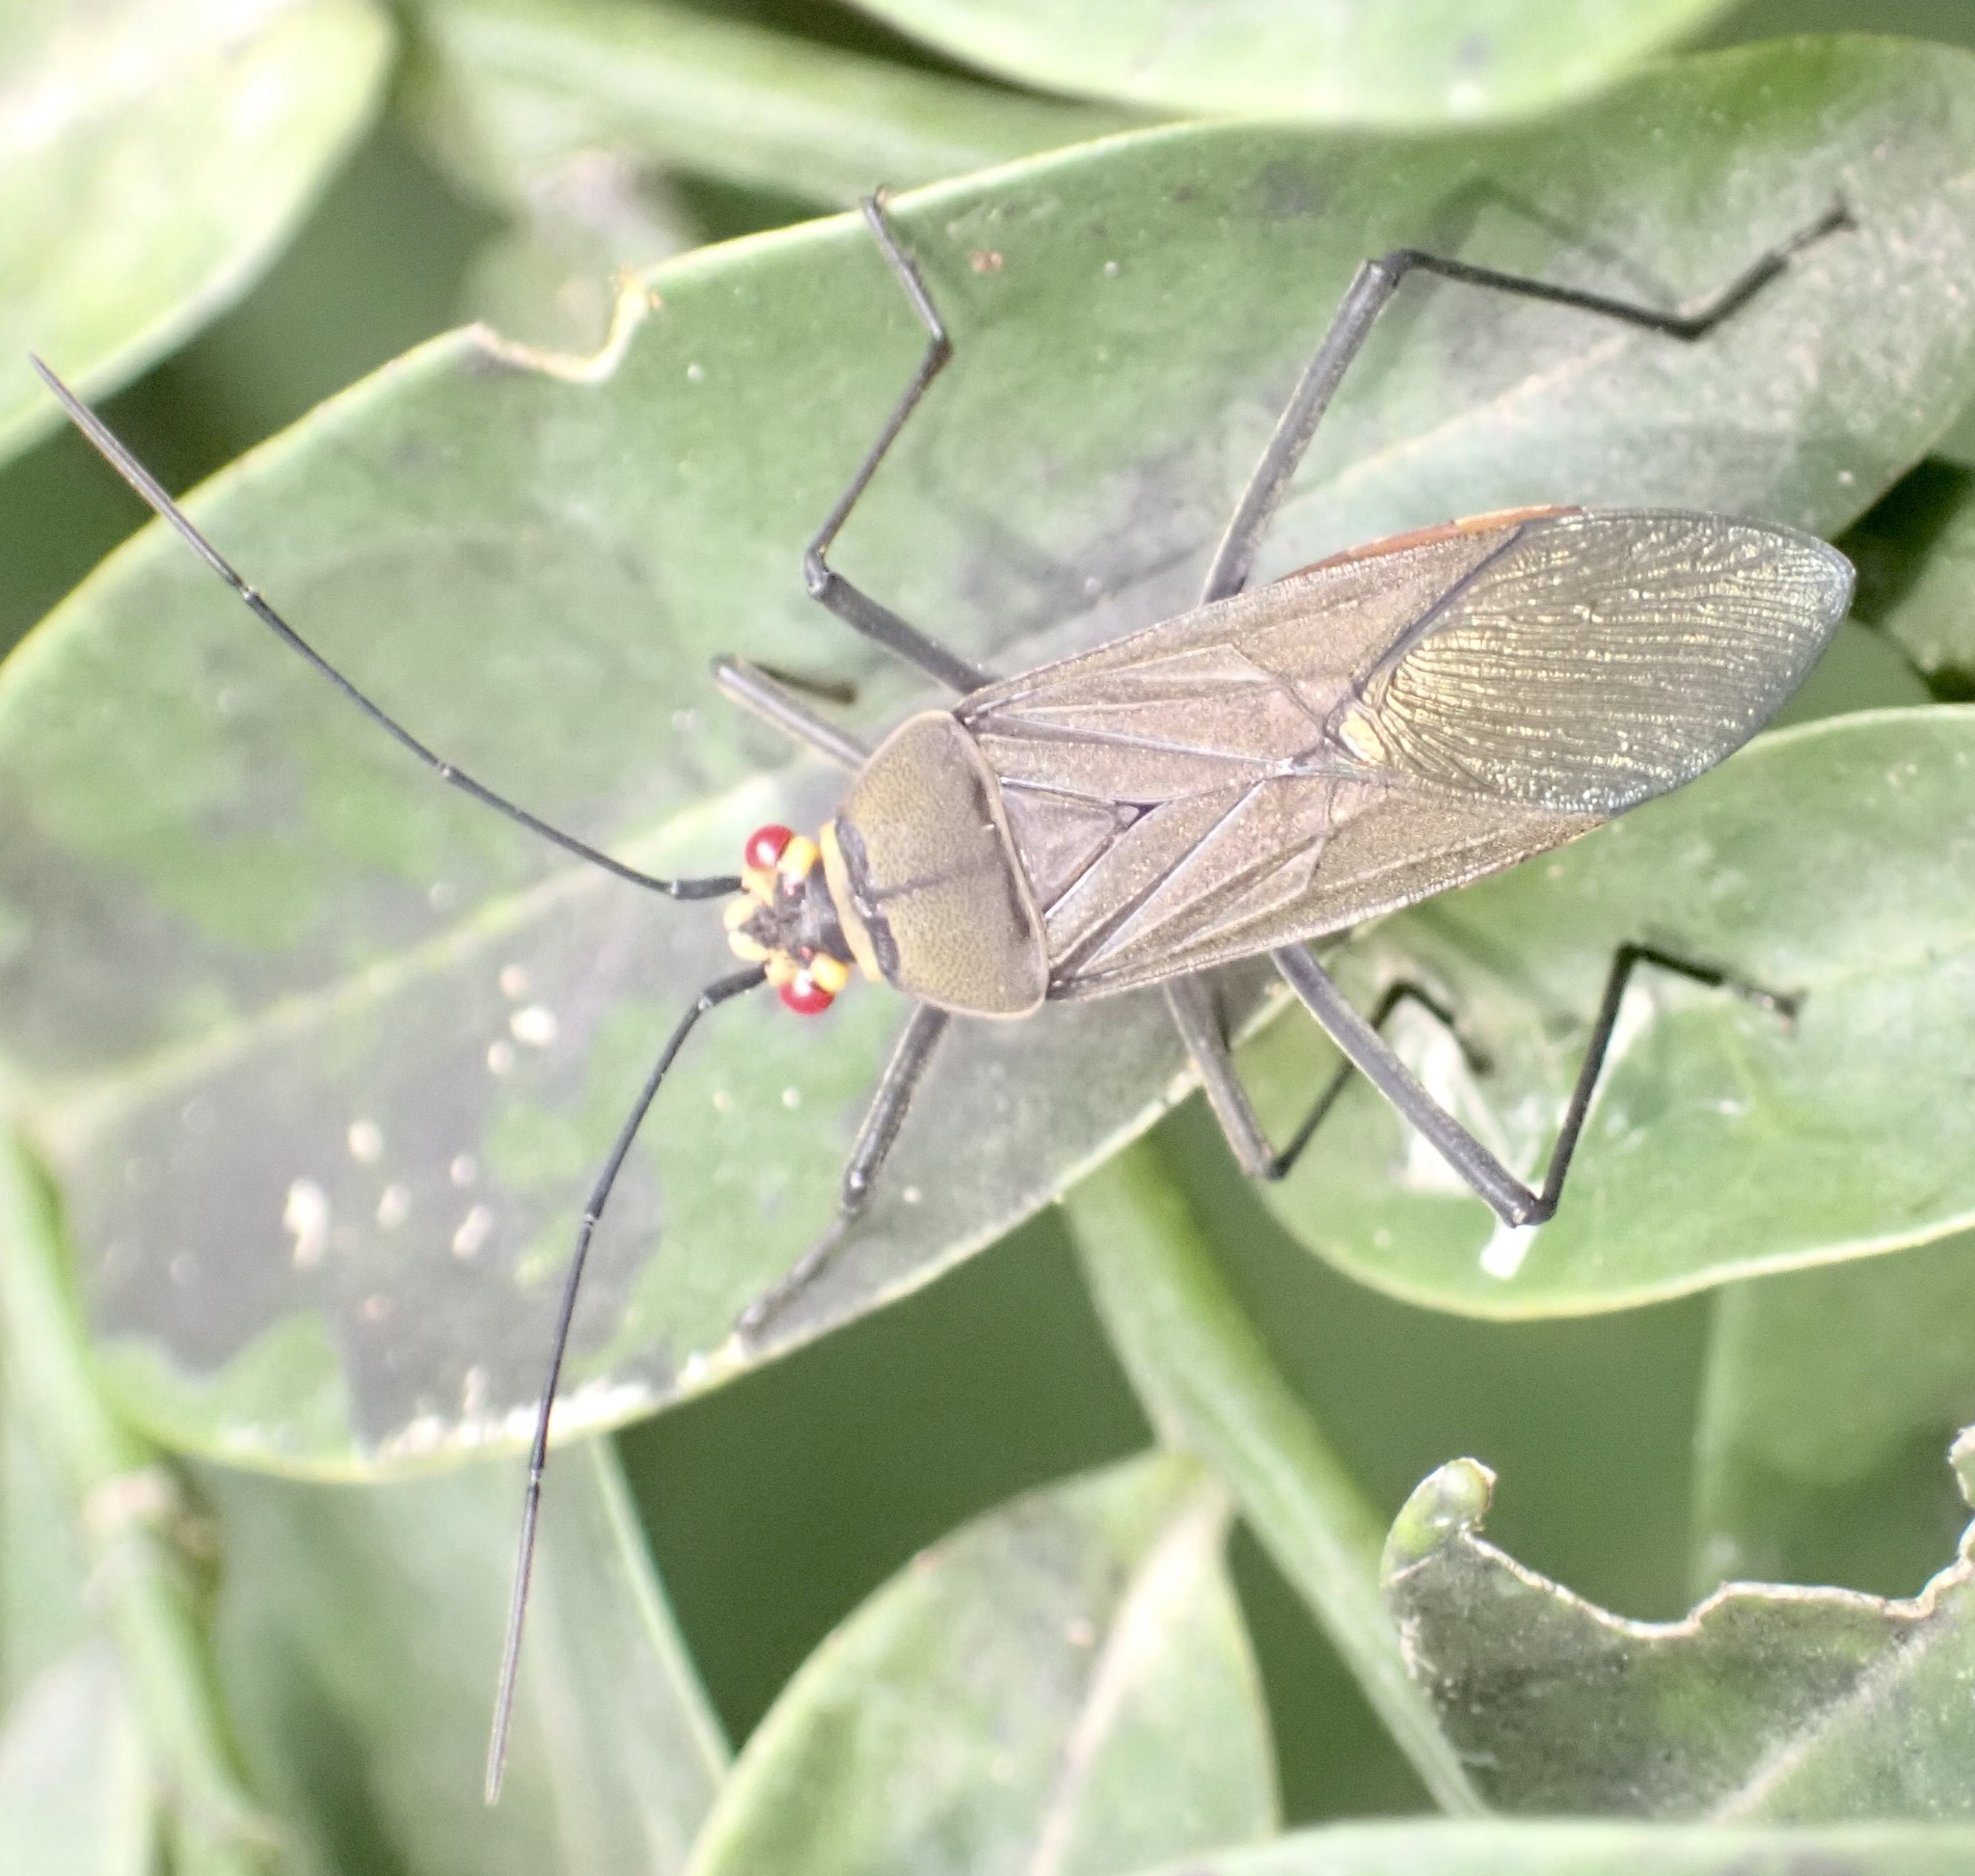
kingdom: Animalia
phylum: Arthropoda
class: Insecta
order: Hemiptera
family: Rhopalidae
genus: Leptocoris
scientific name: Leptocoris aethiops
